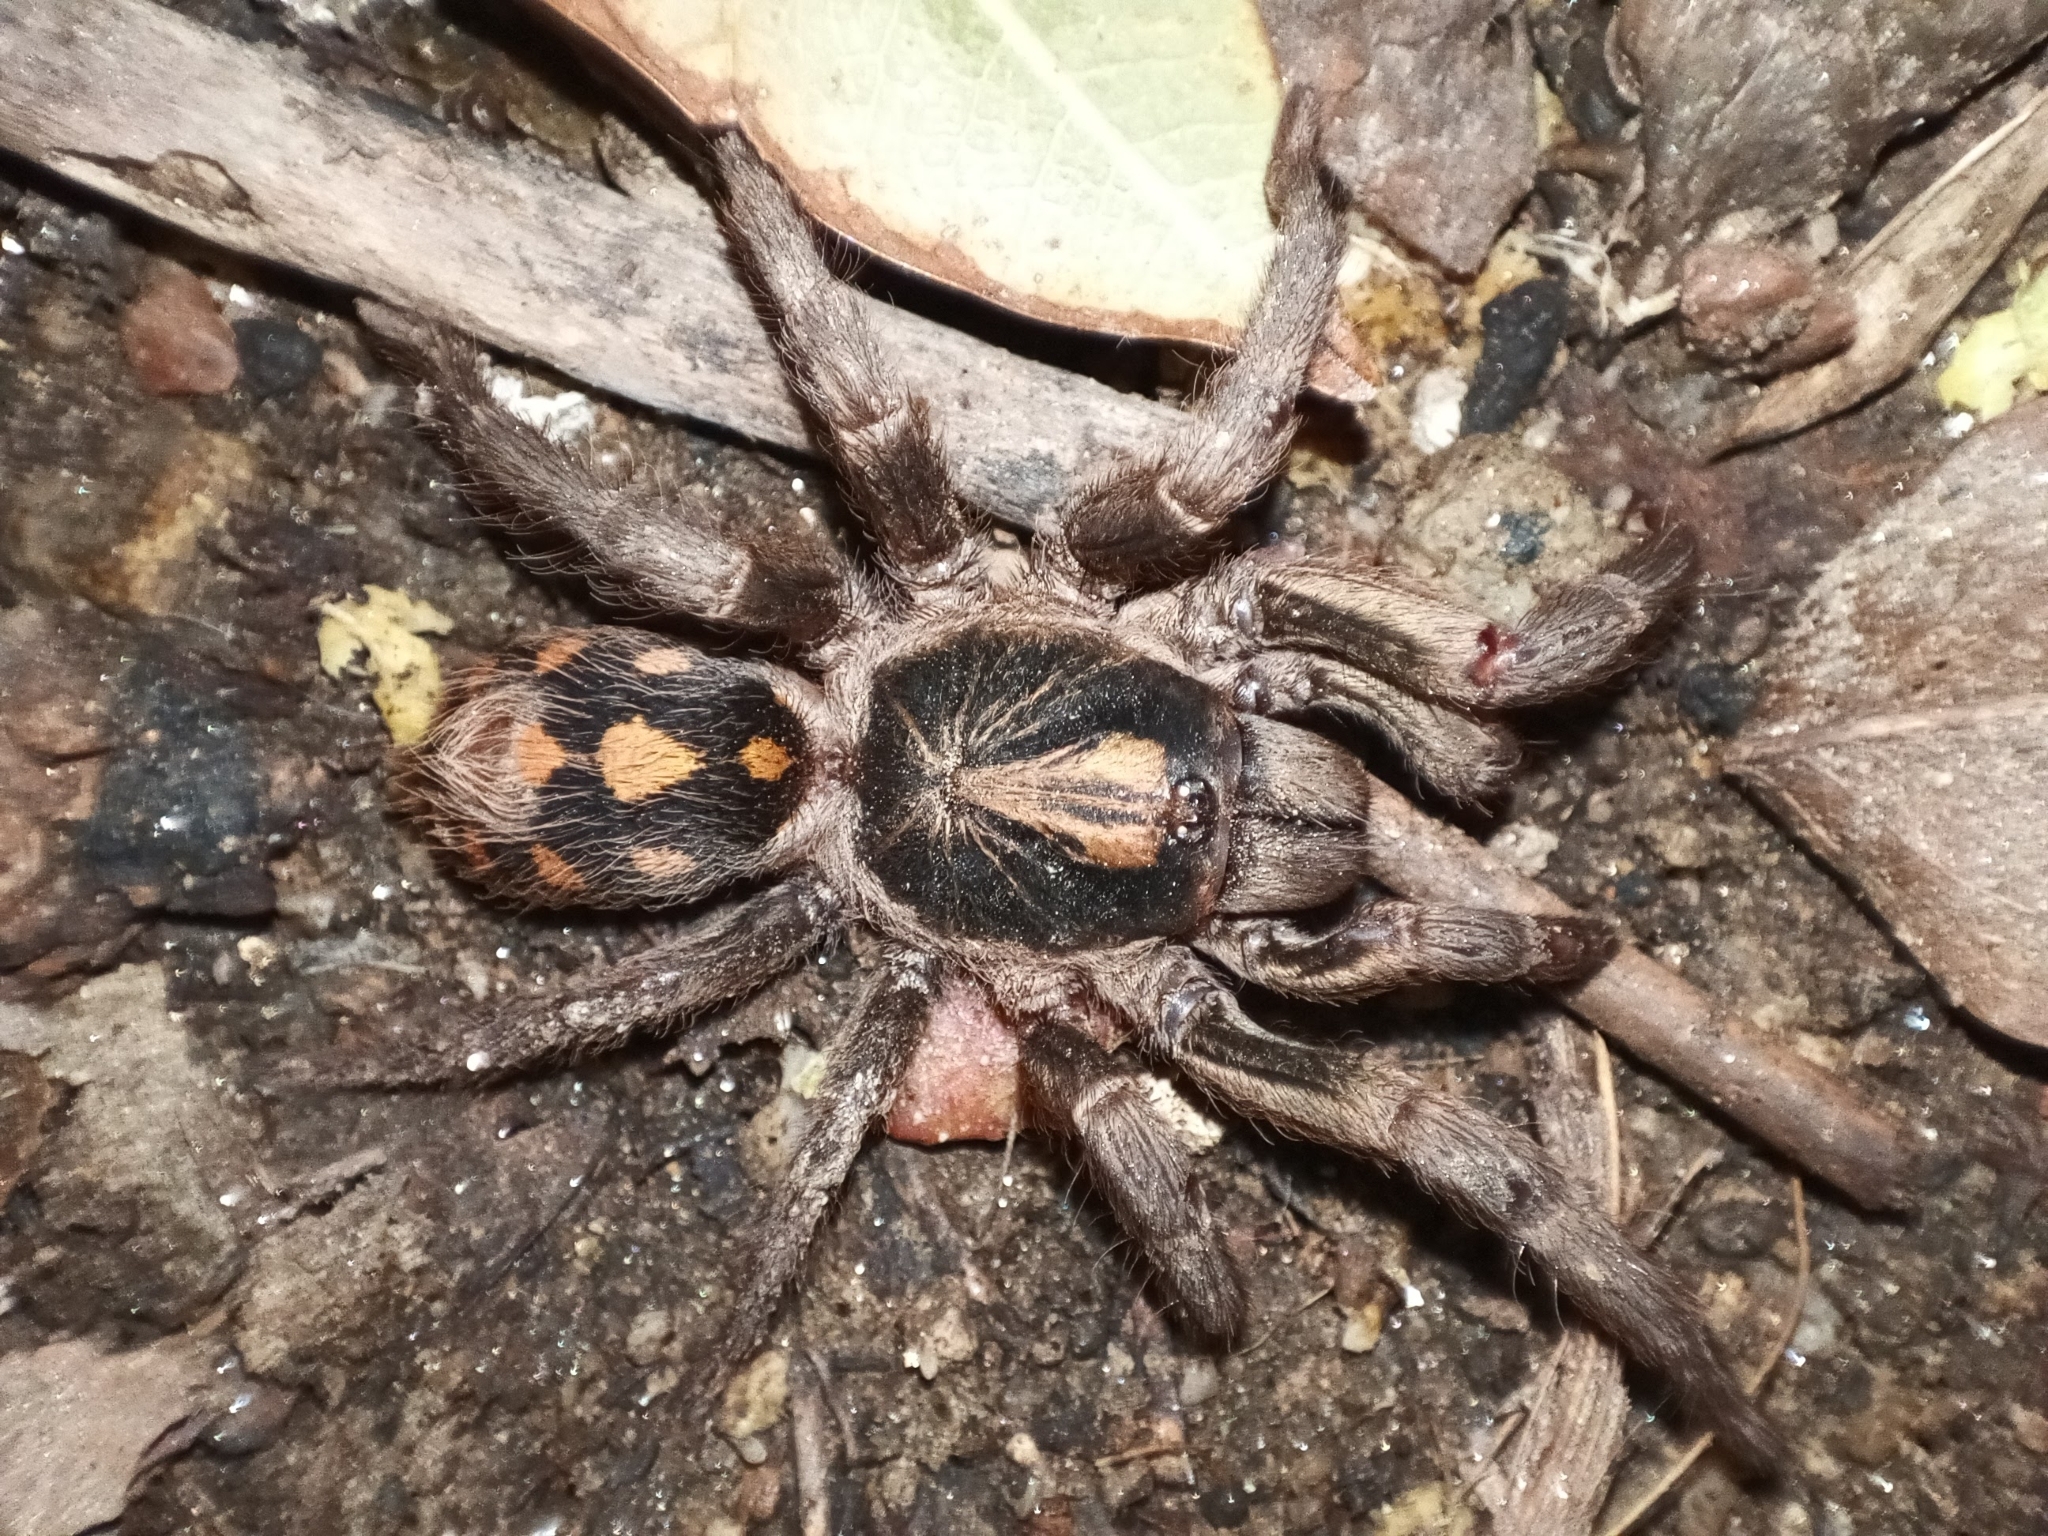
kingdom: Animalia
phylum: Arthropoda
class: Arachnida
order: Araneae
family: Theraphosidae
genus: Hapalopus
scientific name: Hapalopus formosus
